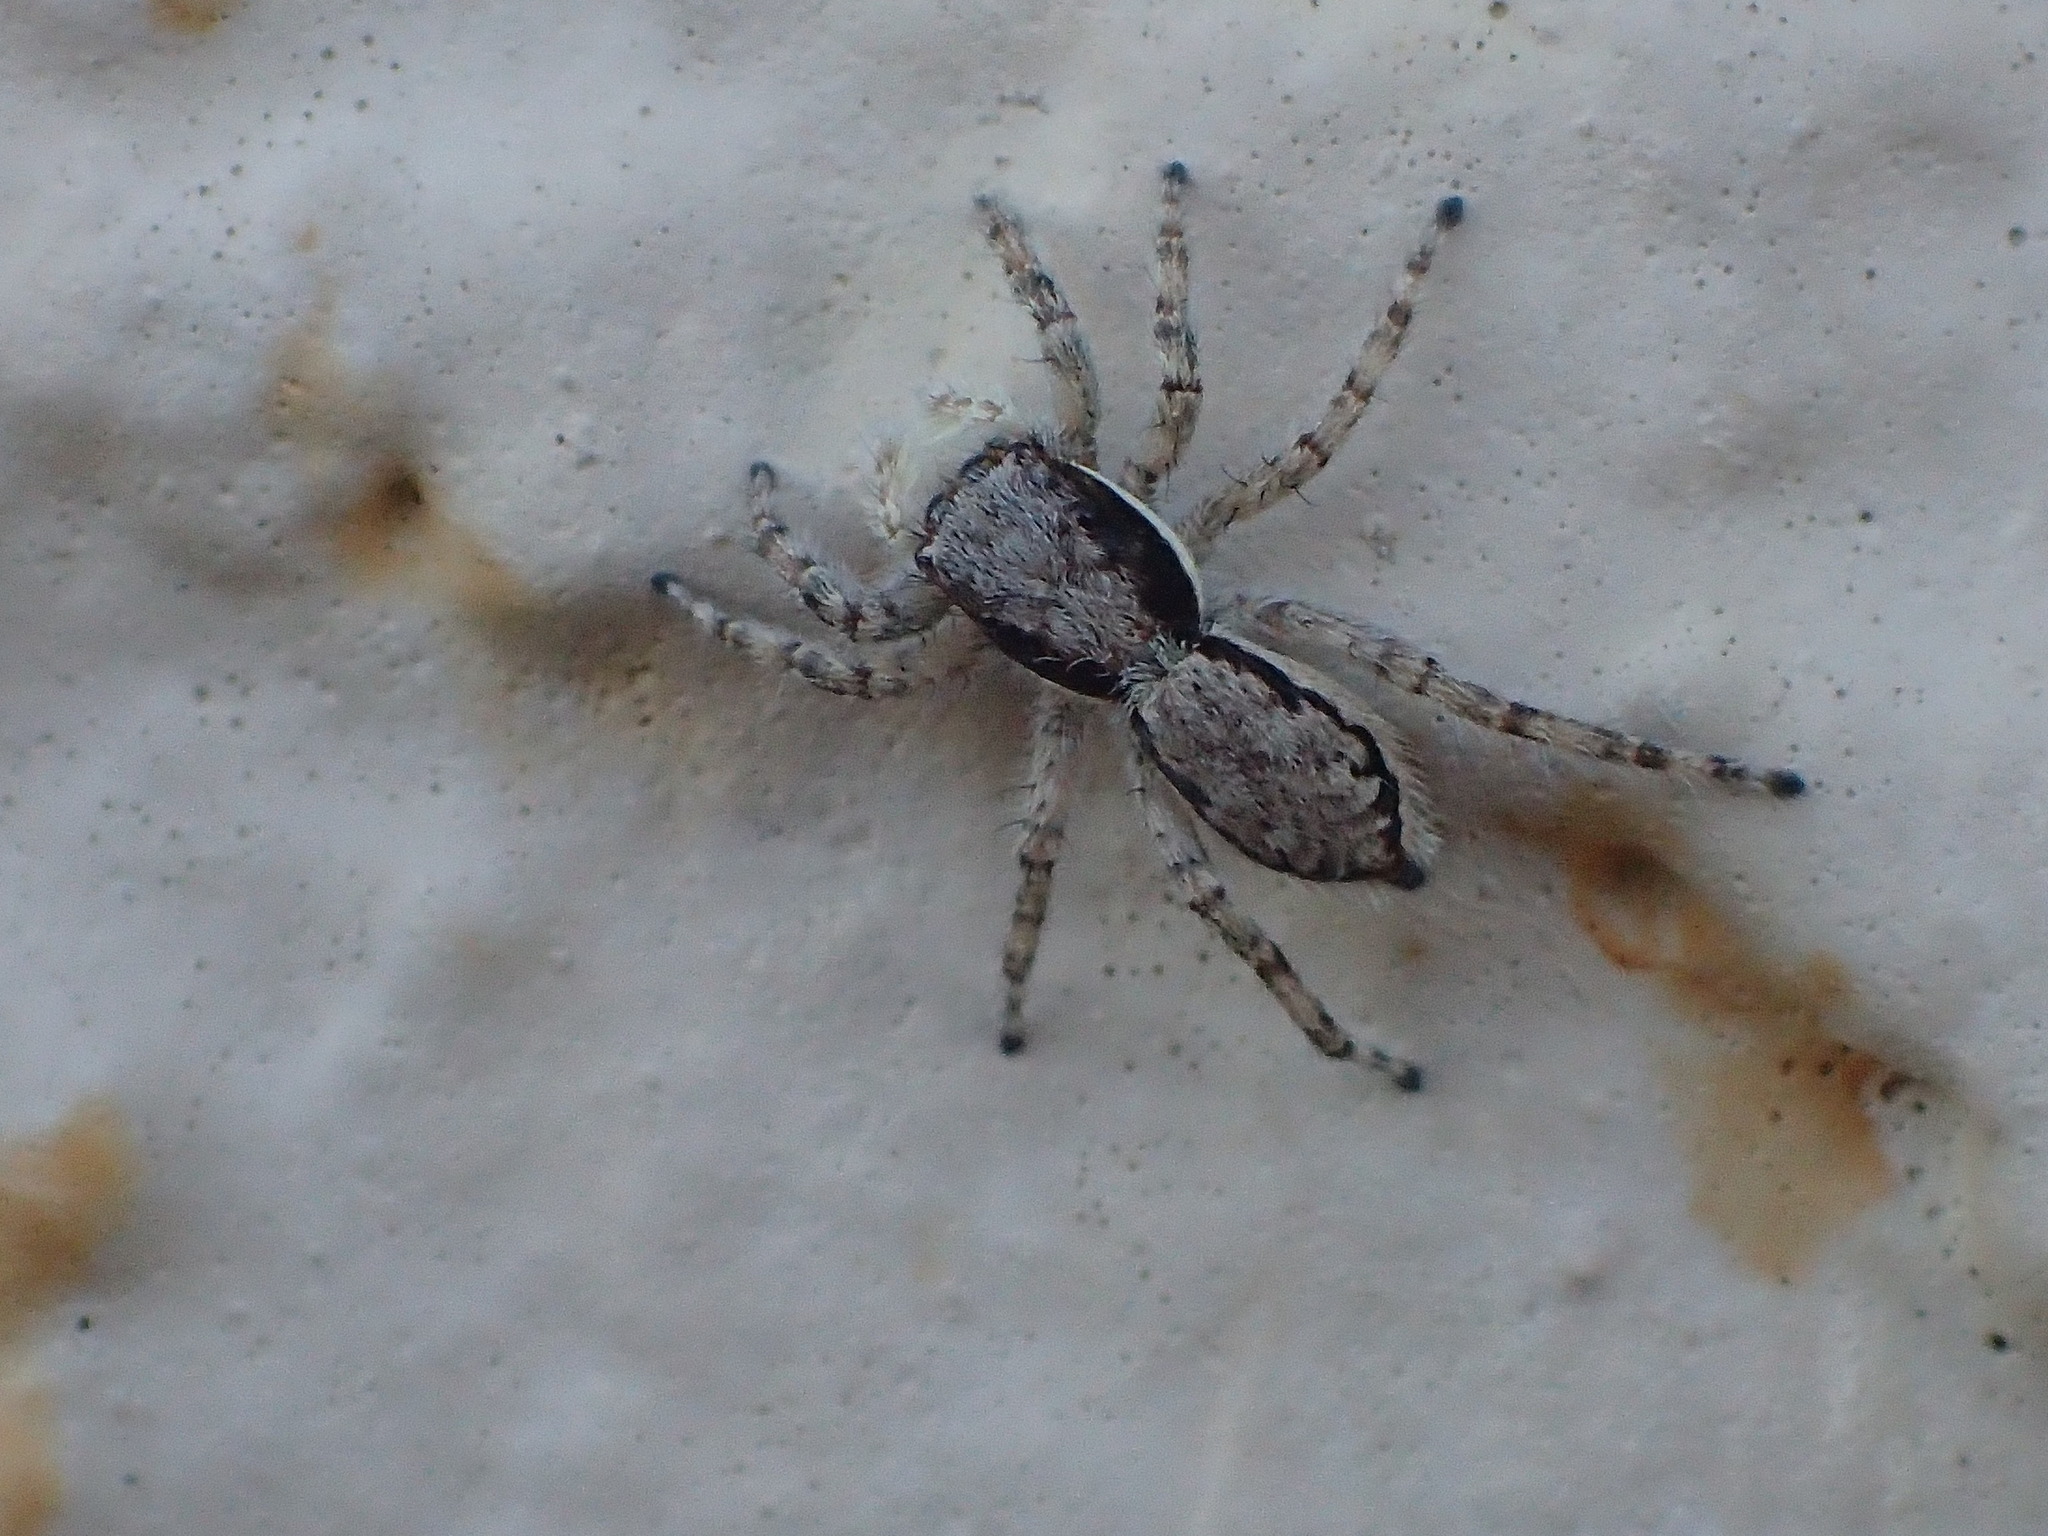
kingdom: Animalia
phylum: Arthropoda
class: Arachnida
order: Araneae
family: Salticidae
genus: Menemerus
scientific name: Menemerus bivittatus
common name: Gray wall jumper
